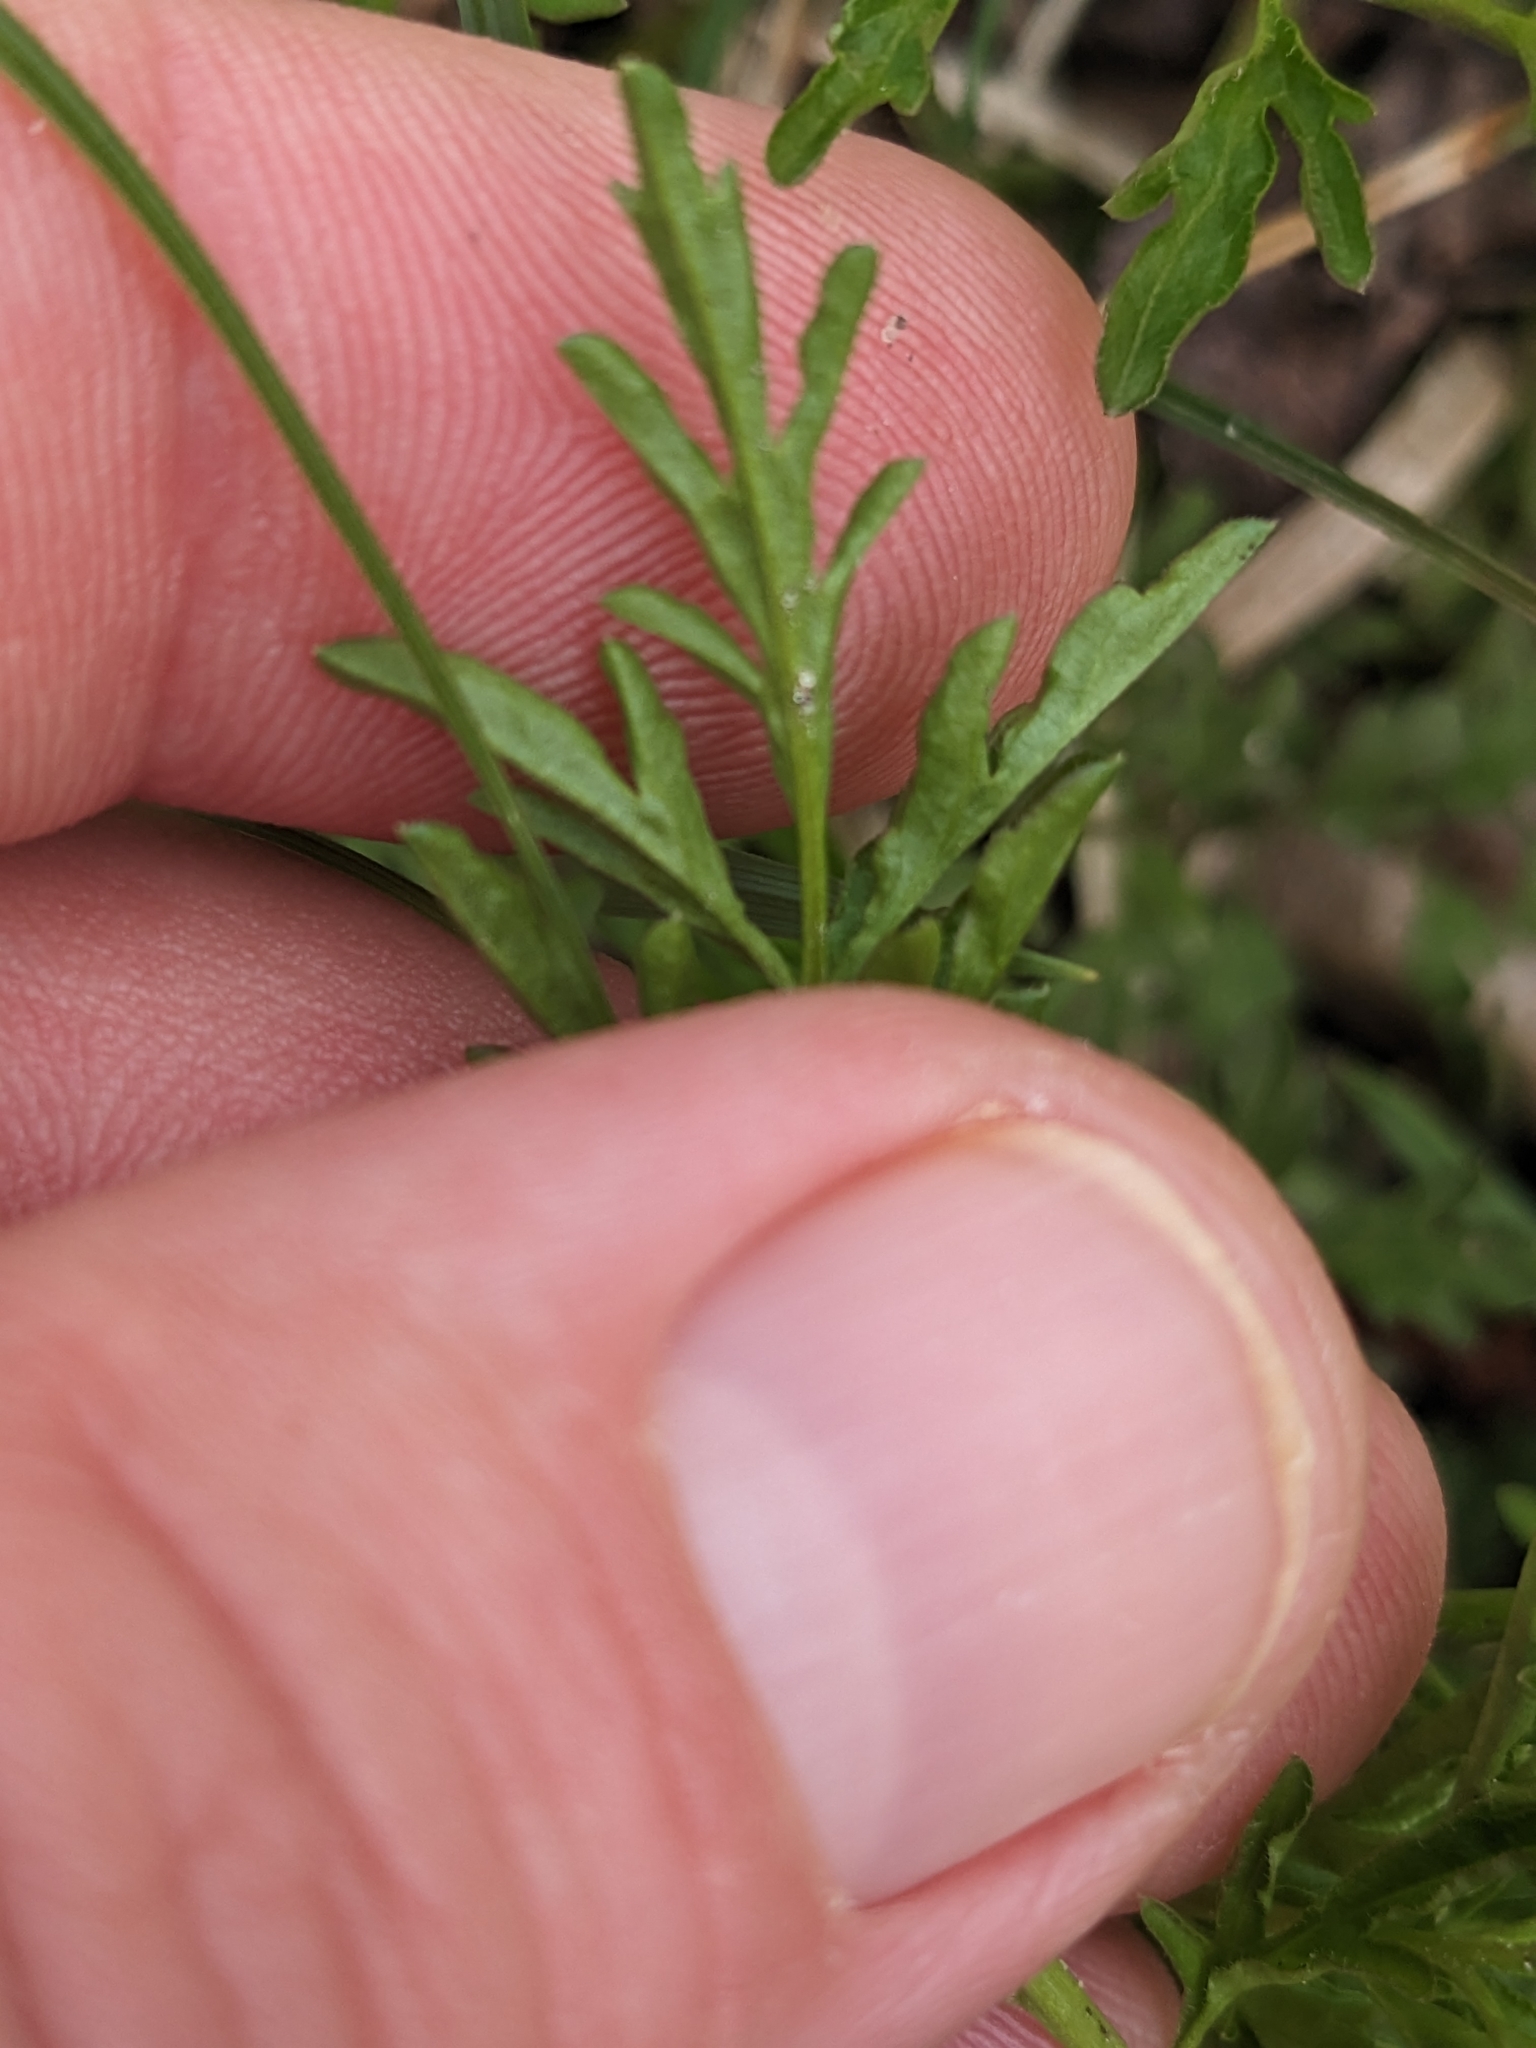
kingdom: Plantae
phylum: Tracheophyta
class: Magnoliopsida
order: Brassicales
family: Brassicaceae
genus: Cardamine
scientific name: Cardamine impatiens
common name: Narrow-leaved bitter-cress
